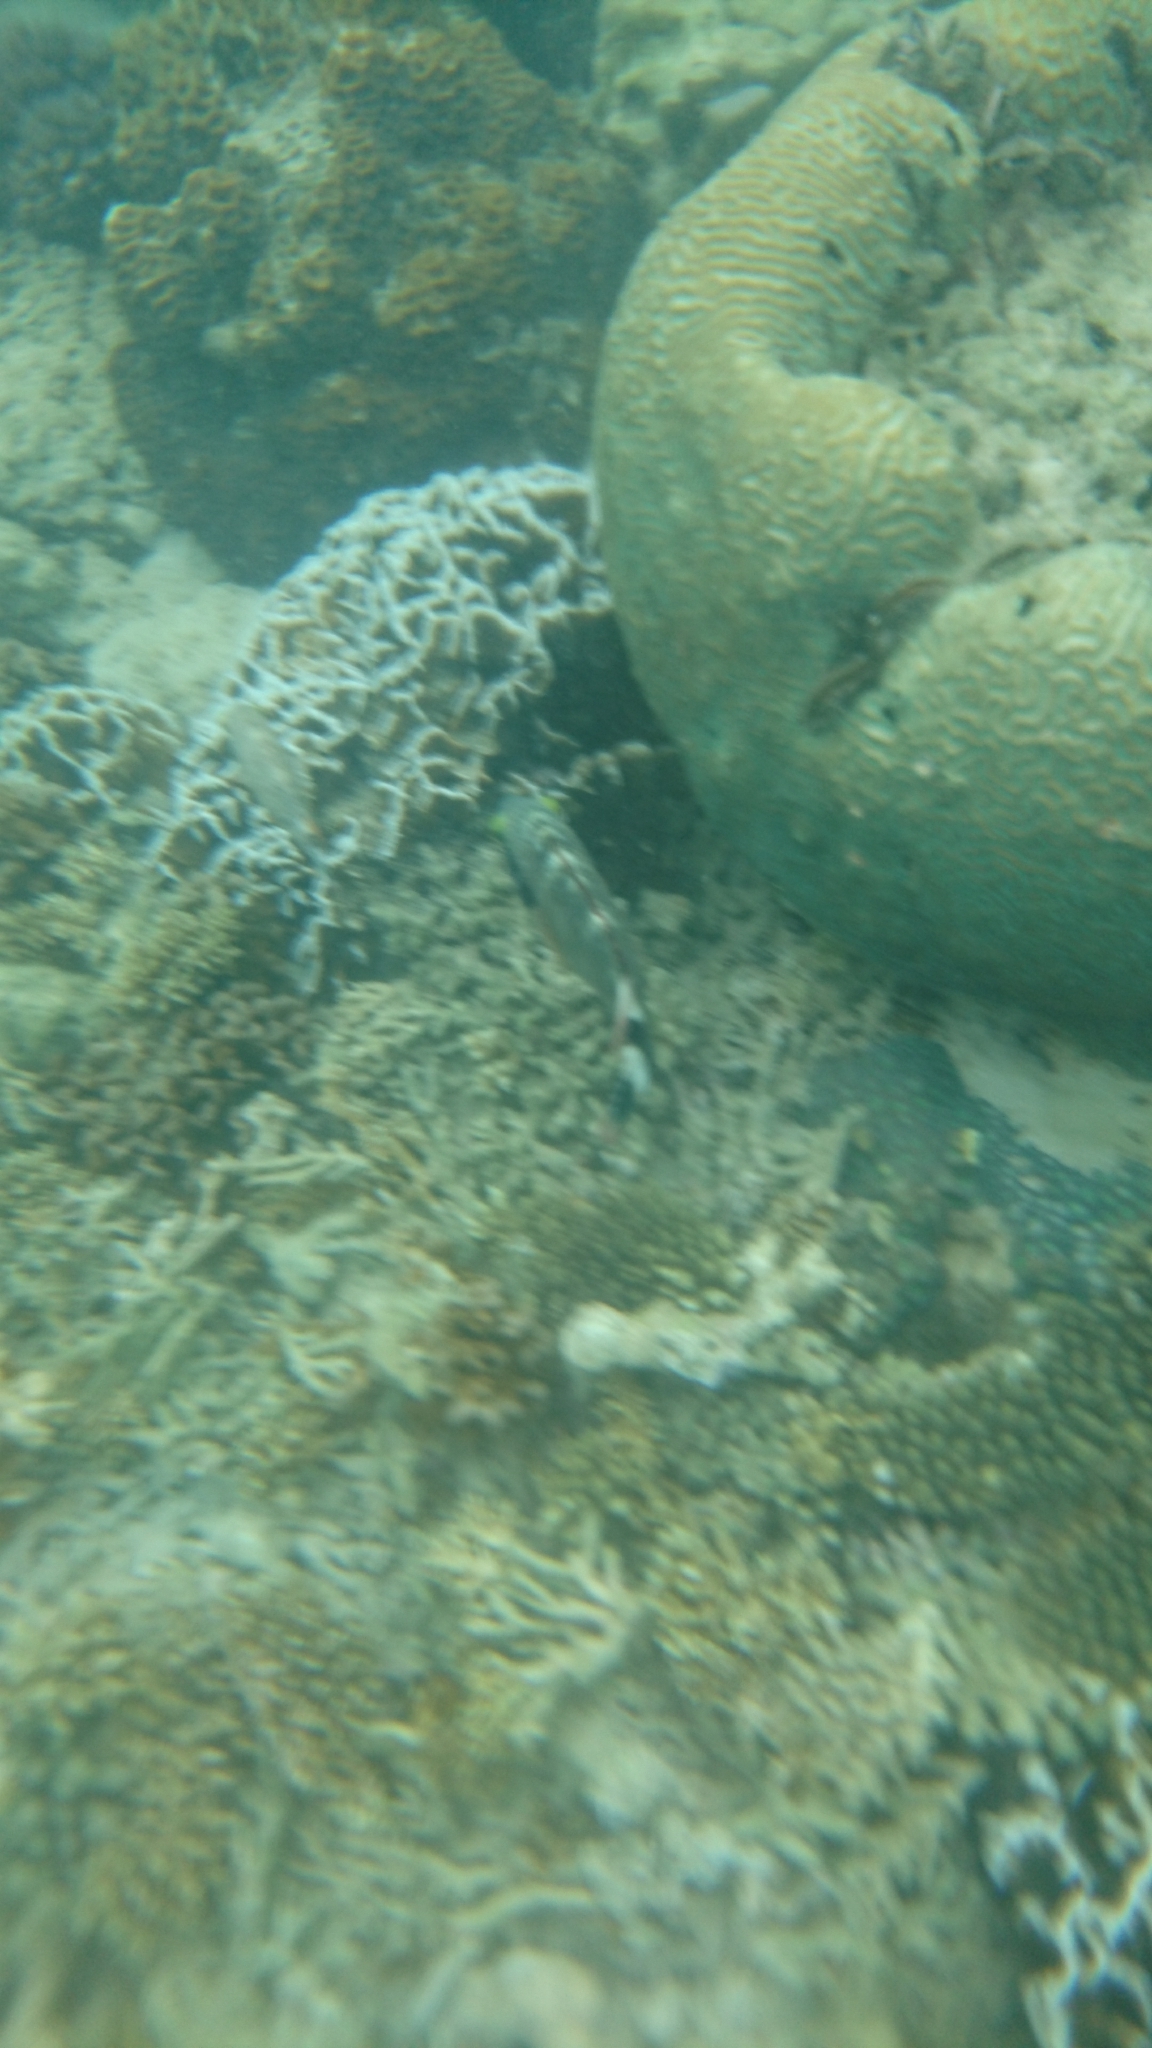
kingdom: Animalia
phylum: Chordata
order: Perciformes
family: Labridae
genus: Cheilinus
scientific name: Cheilinus chlorourus
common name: Floral wrasse
